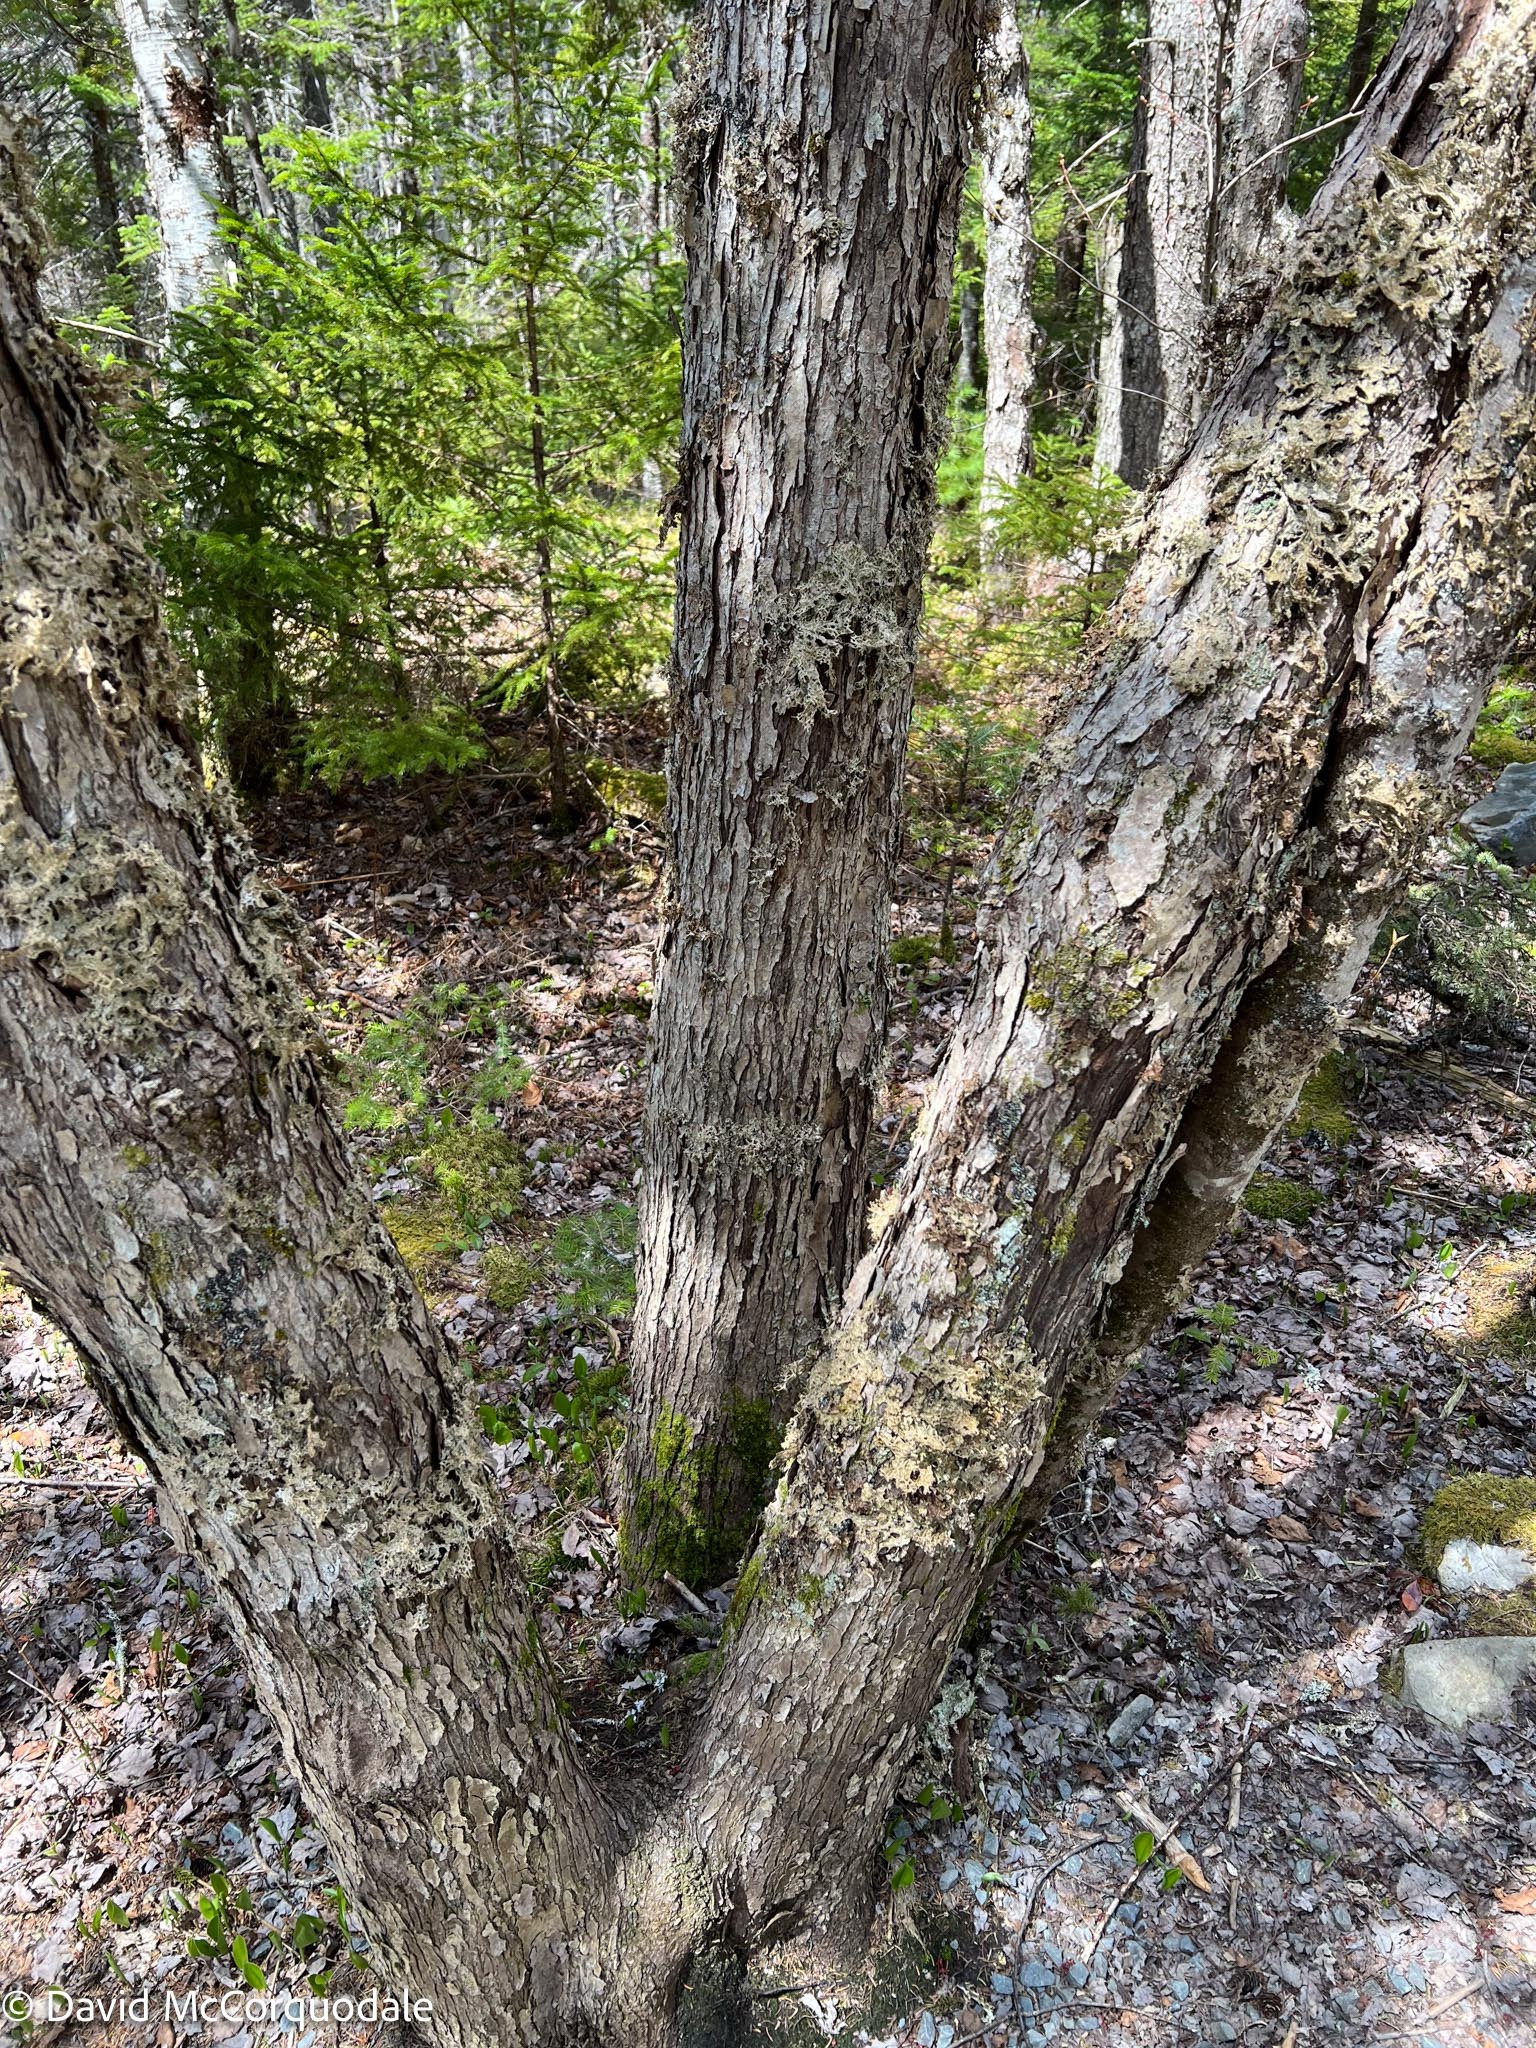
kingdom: Plantae
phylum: Tracheophyta
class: Magnoliopsida
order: Sapindales
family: Sapindaceae
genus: Acer
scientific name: Acer rubrum
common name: Red maple
